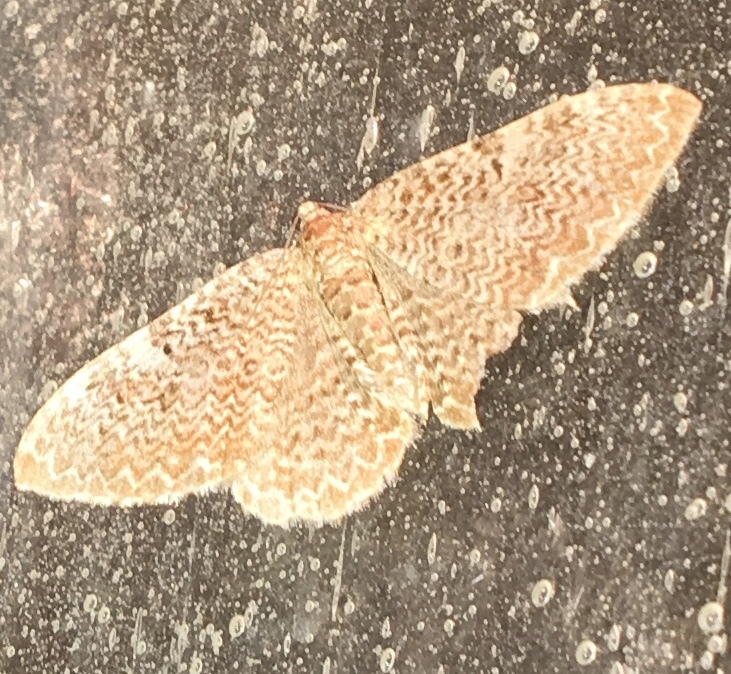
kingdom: Animalia
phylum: Arthropoda
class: Insecta
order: Lepidoptera
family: Geometridae
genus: Rheumaptera
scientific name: Rheumaptera prunivorata
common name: Cherry scallop shell moth
